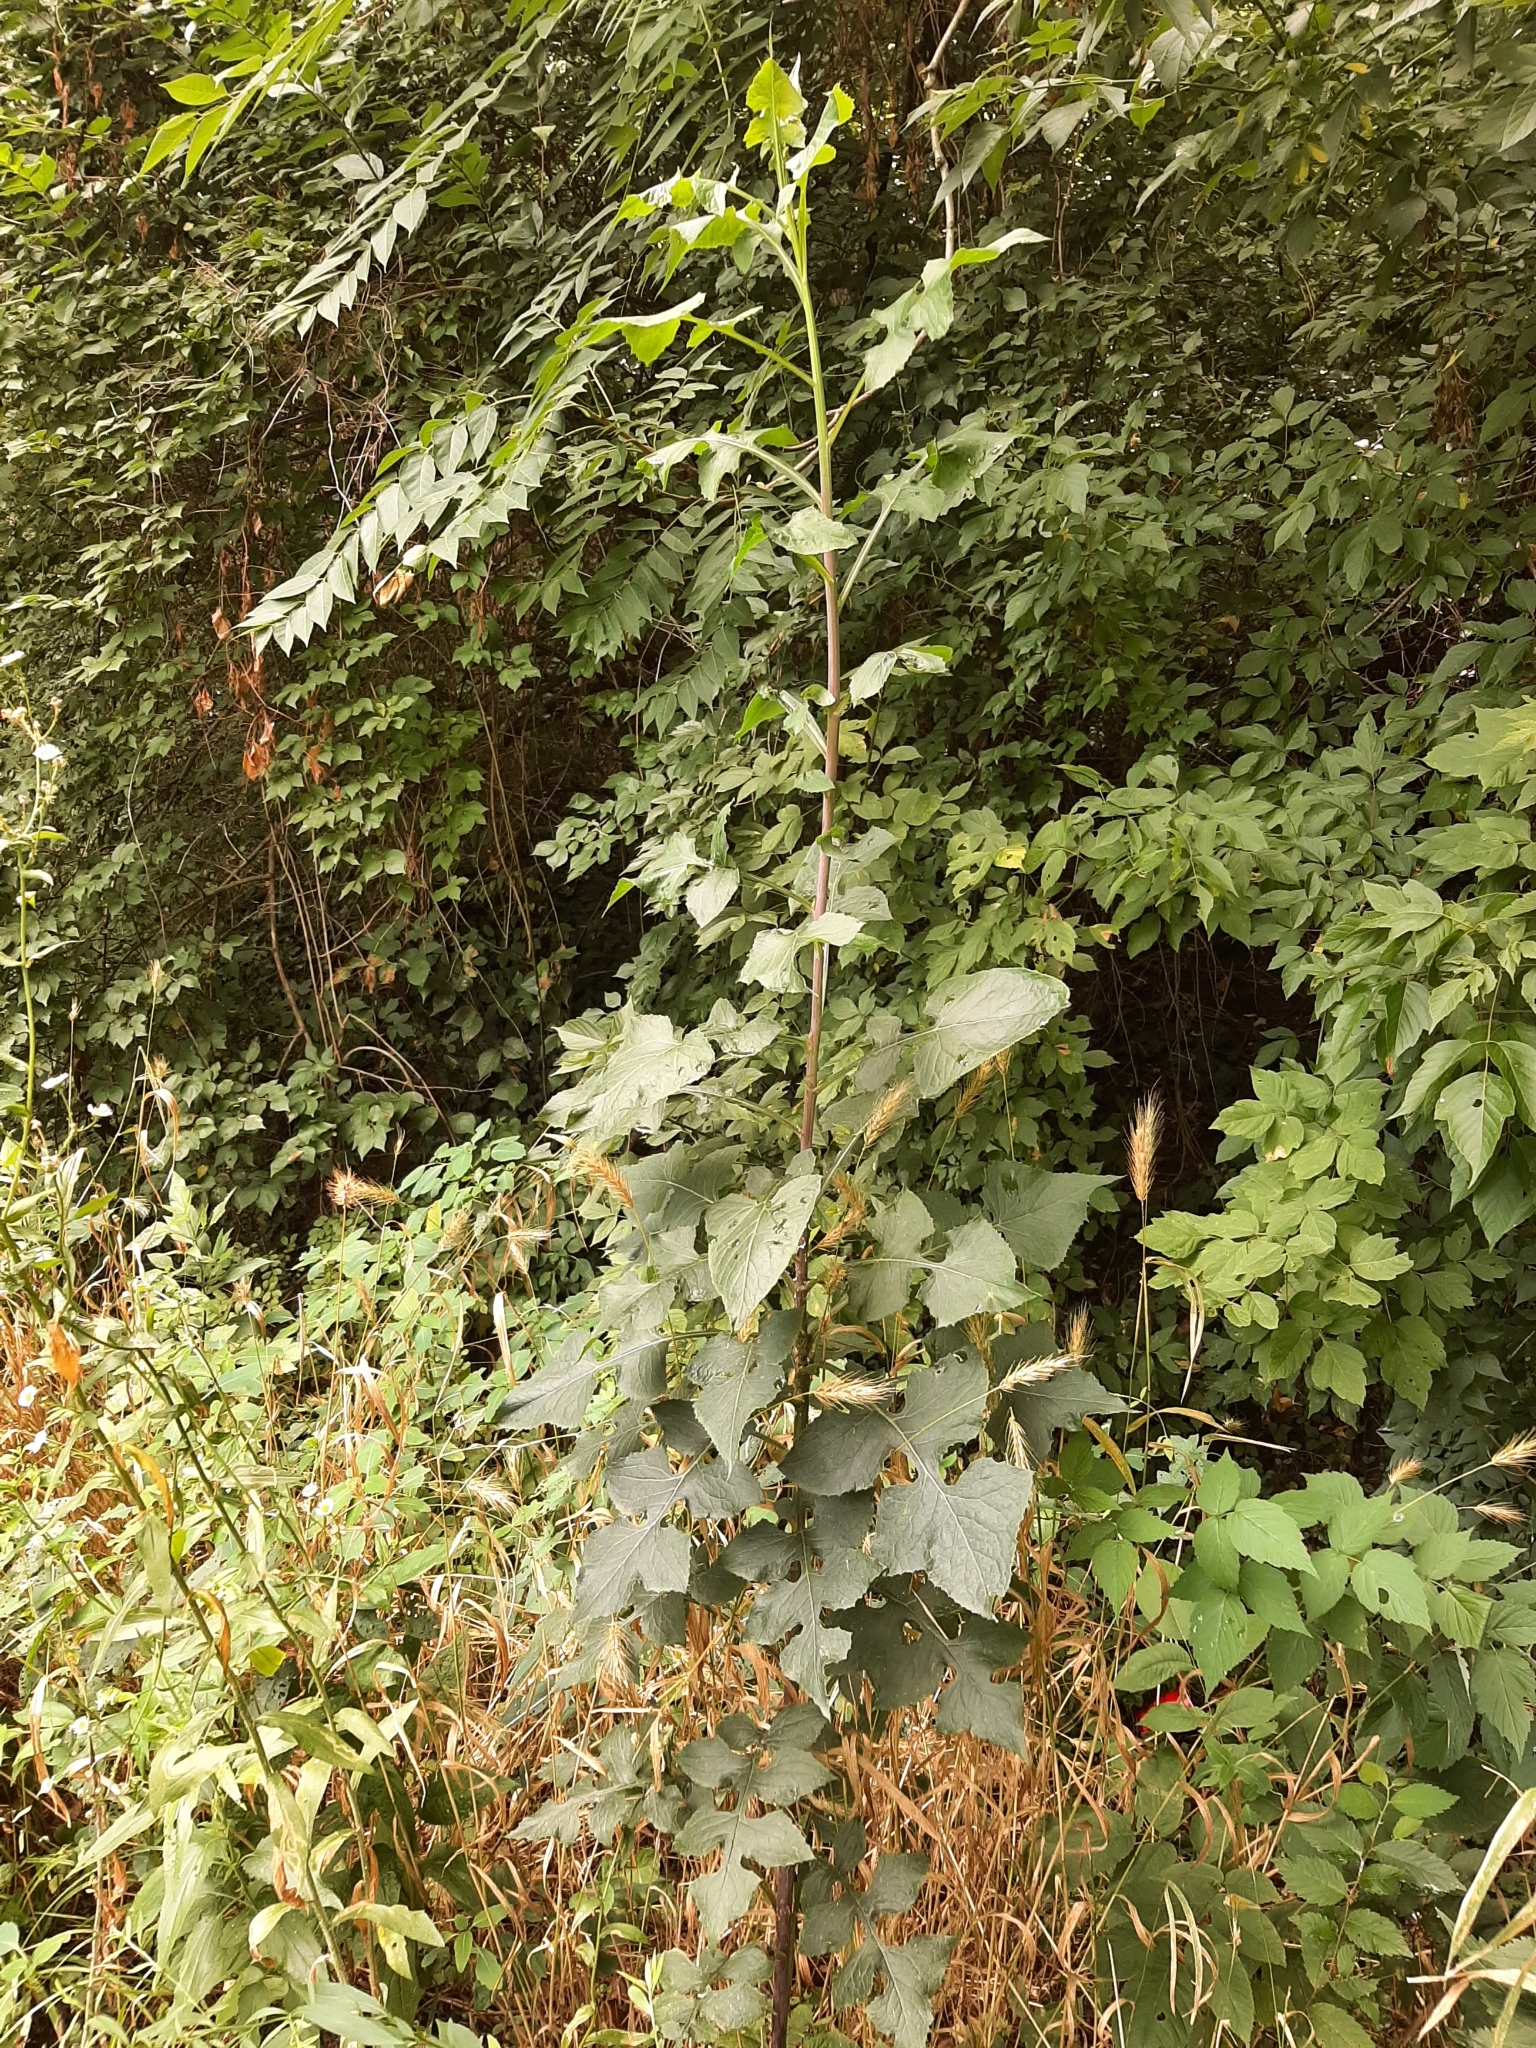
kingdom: Plantae
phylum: Tracheophyta
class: Magnoliopsida
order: Asterales
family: Asteraceae
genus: Lactuca
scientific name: Lactuca floridana
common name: Woodland lettuce
